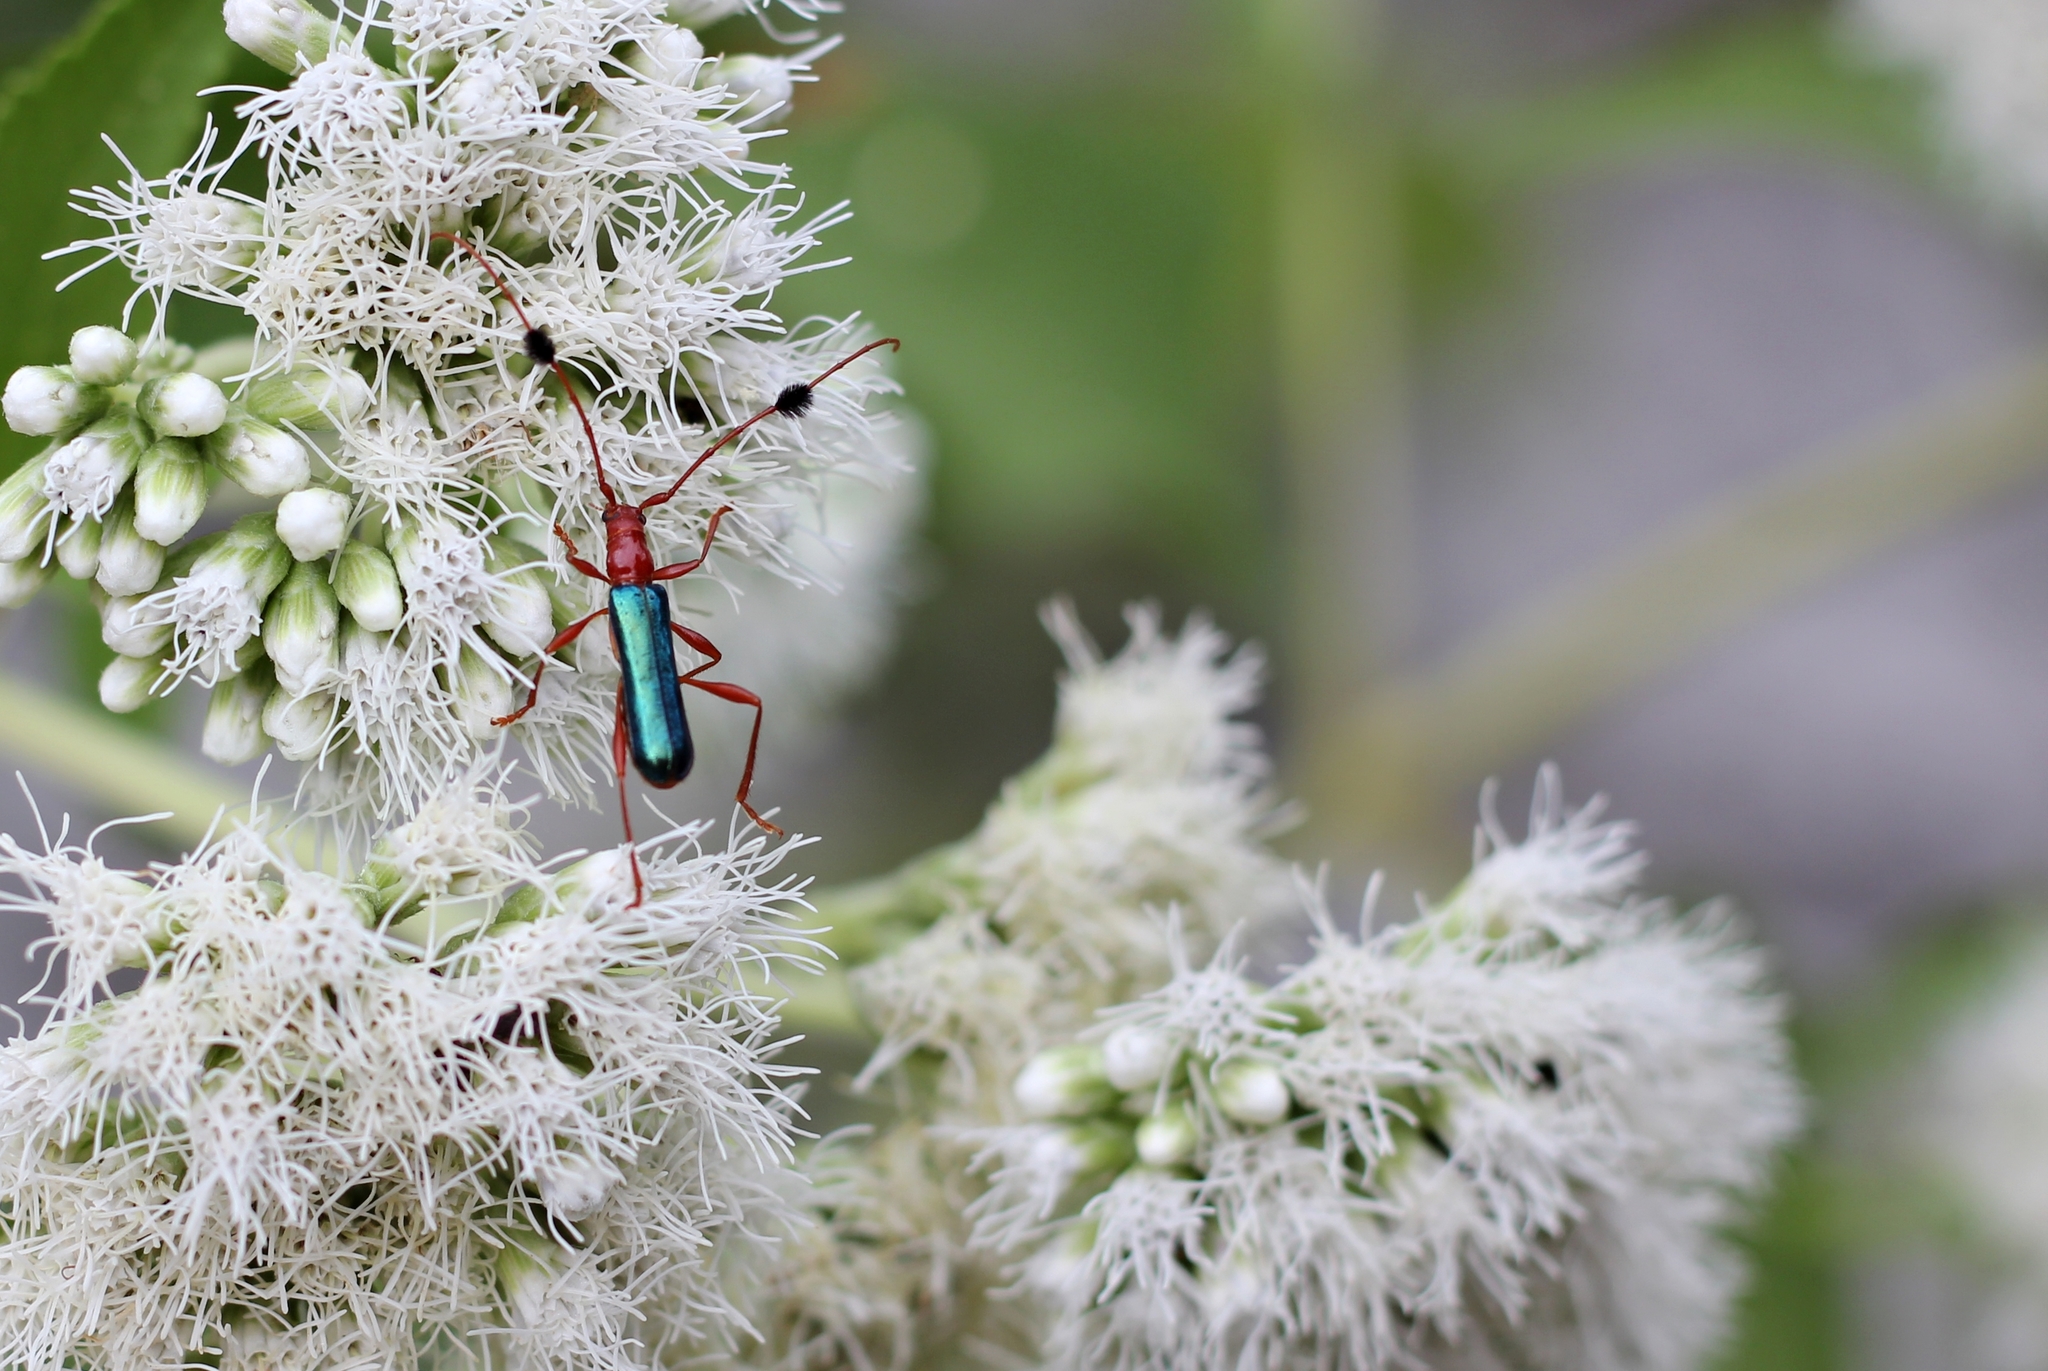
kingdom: Animalia
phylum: Arthropoda
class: Insecta
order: Coleoptera
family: Cerambycidae
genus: Paromoeocerus
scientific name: Paromoeocerus barbicornis
